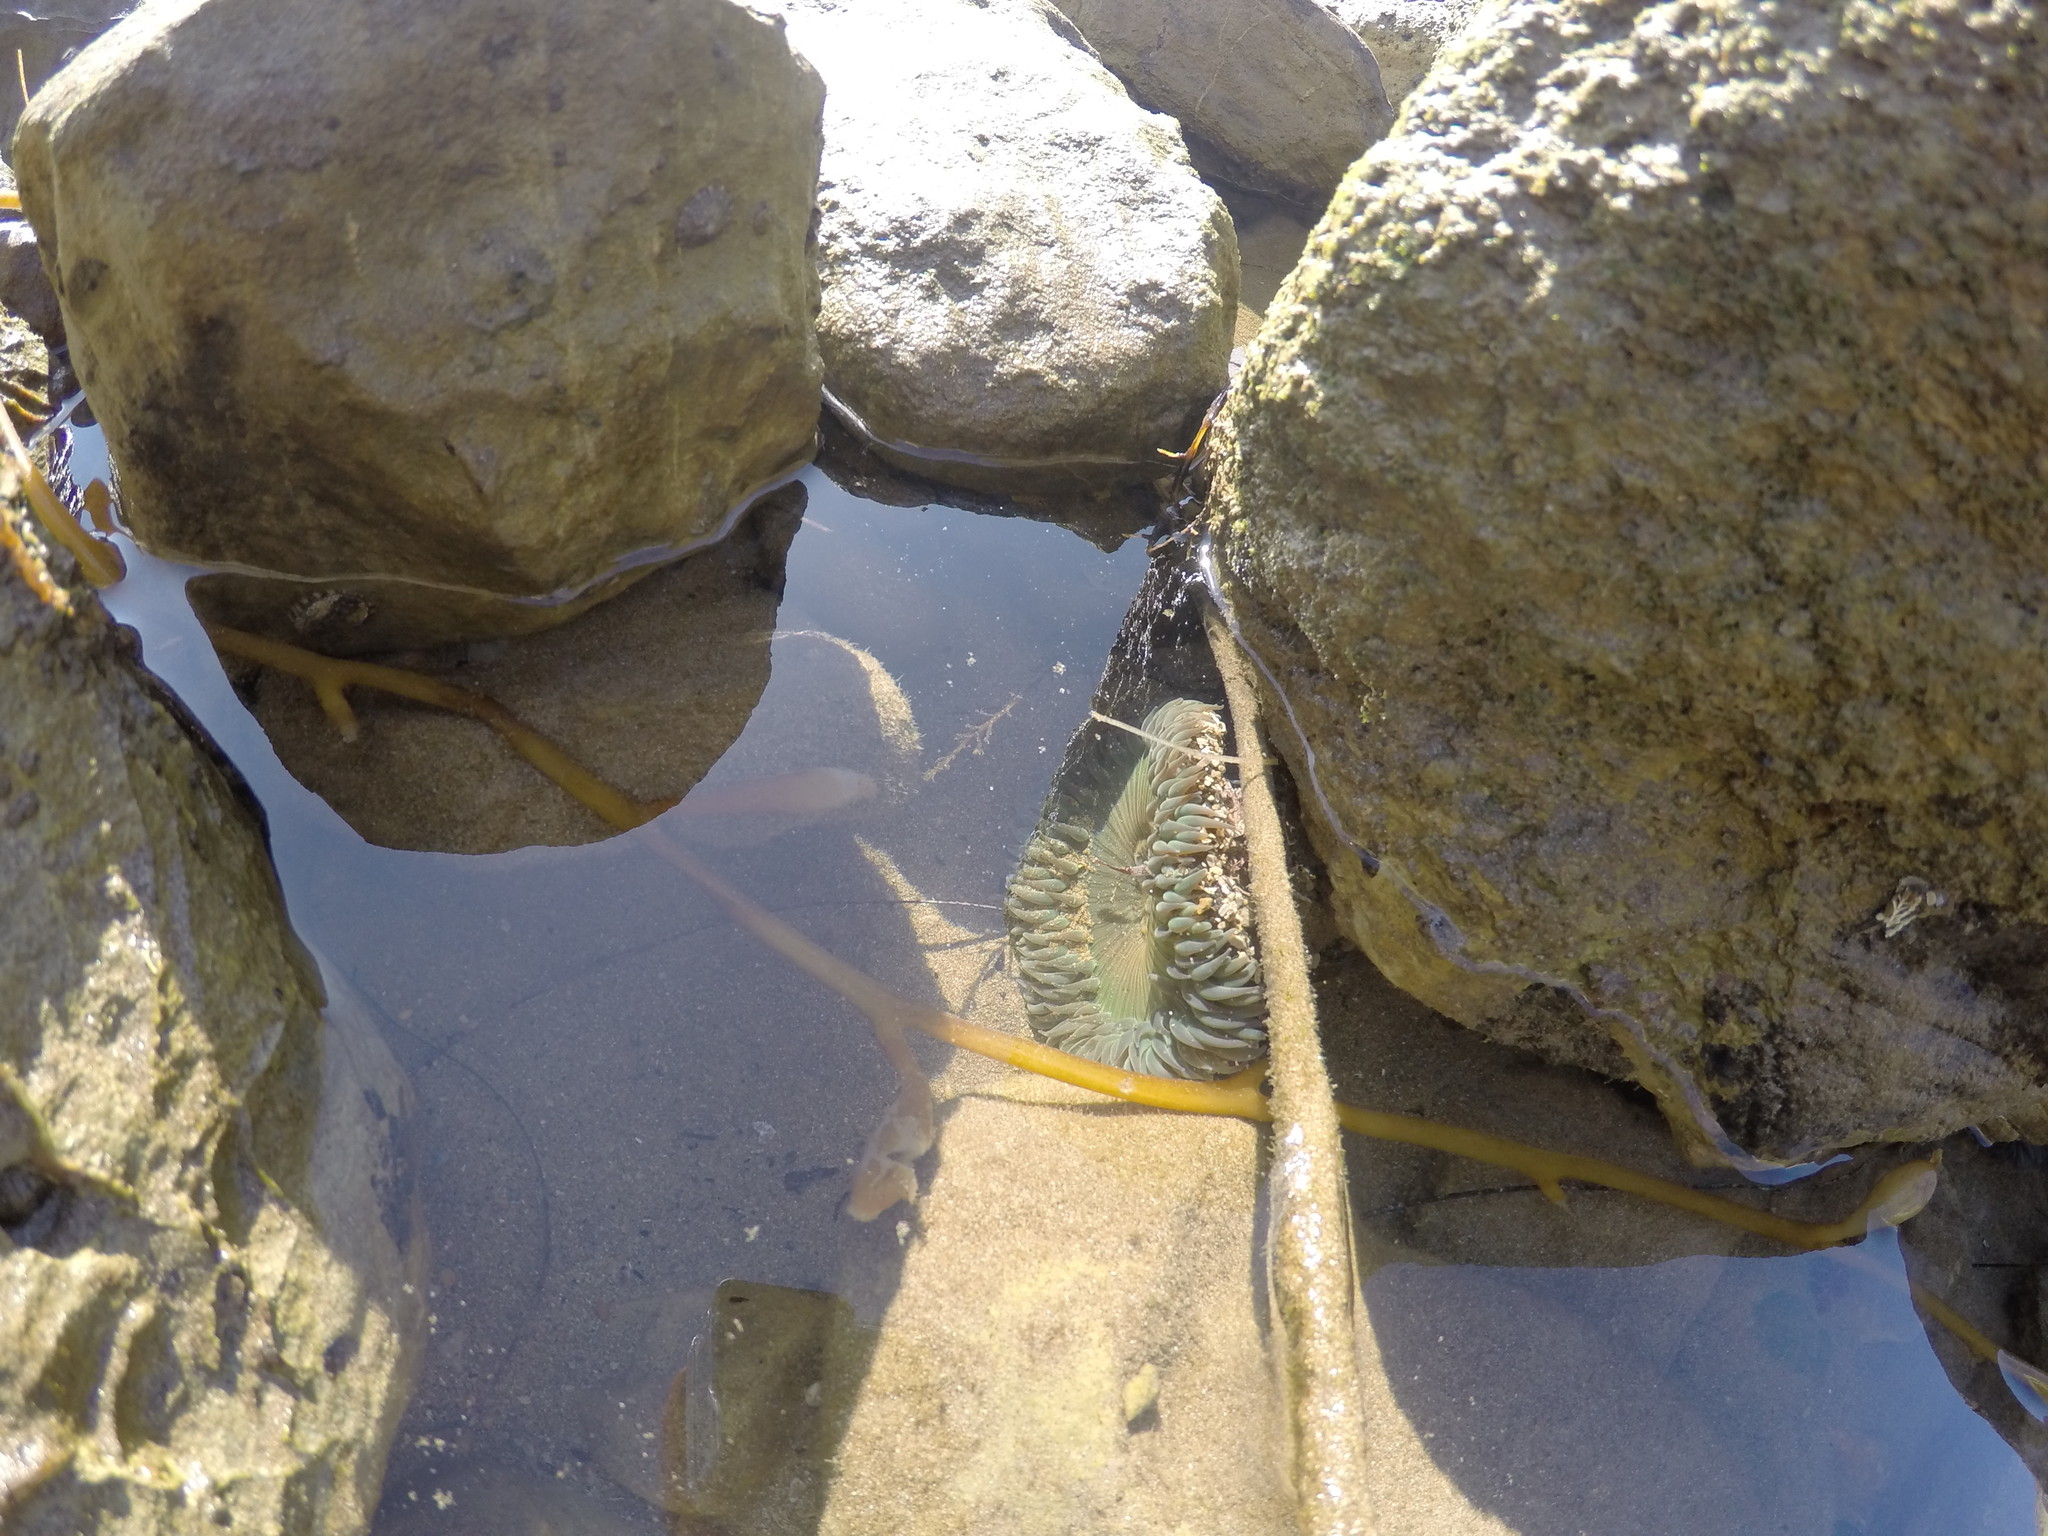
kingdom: Animalia
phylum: Cnidaria
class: Anthozoa
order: Actiniaria
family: Actiniidae
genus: Anthopleura
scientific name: Anthopleura sola
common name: Sun anemone
